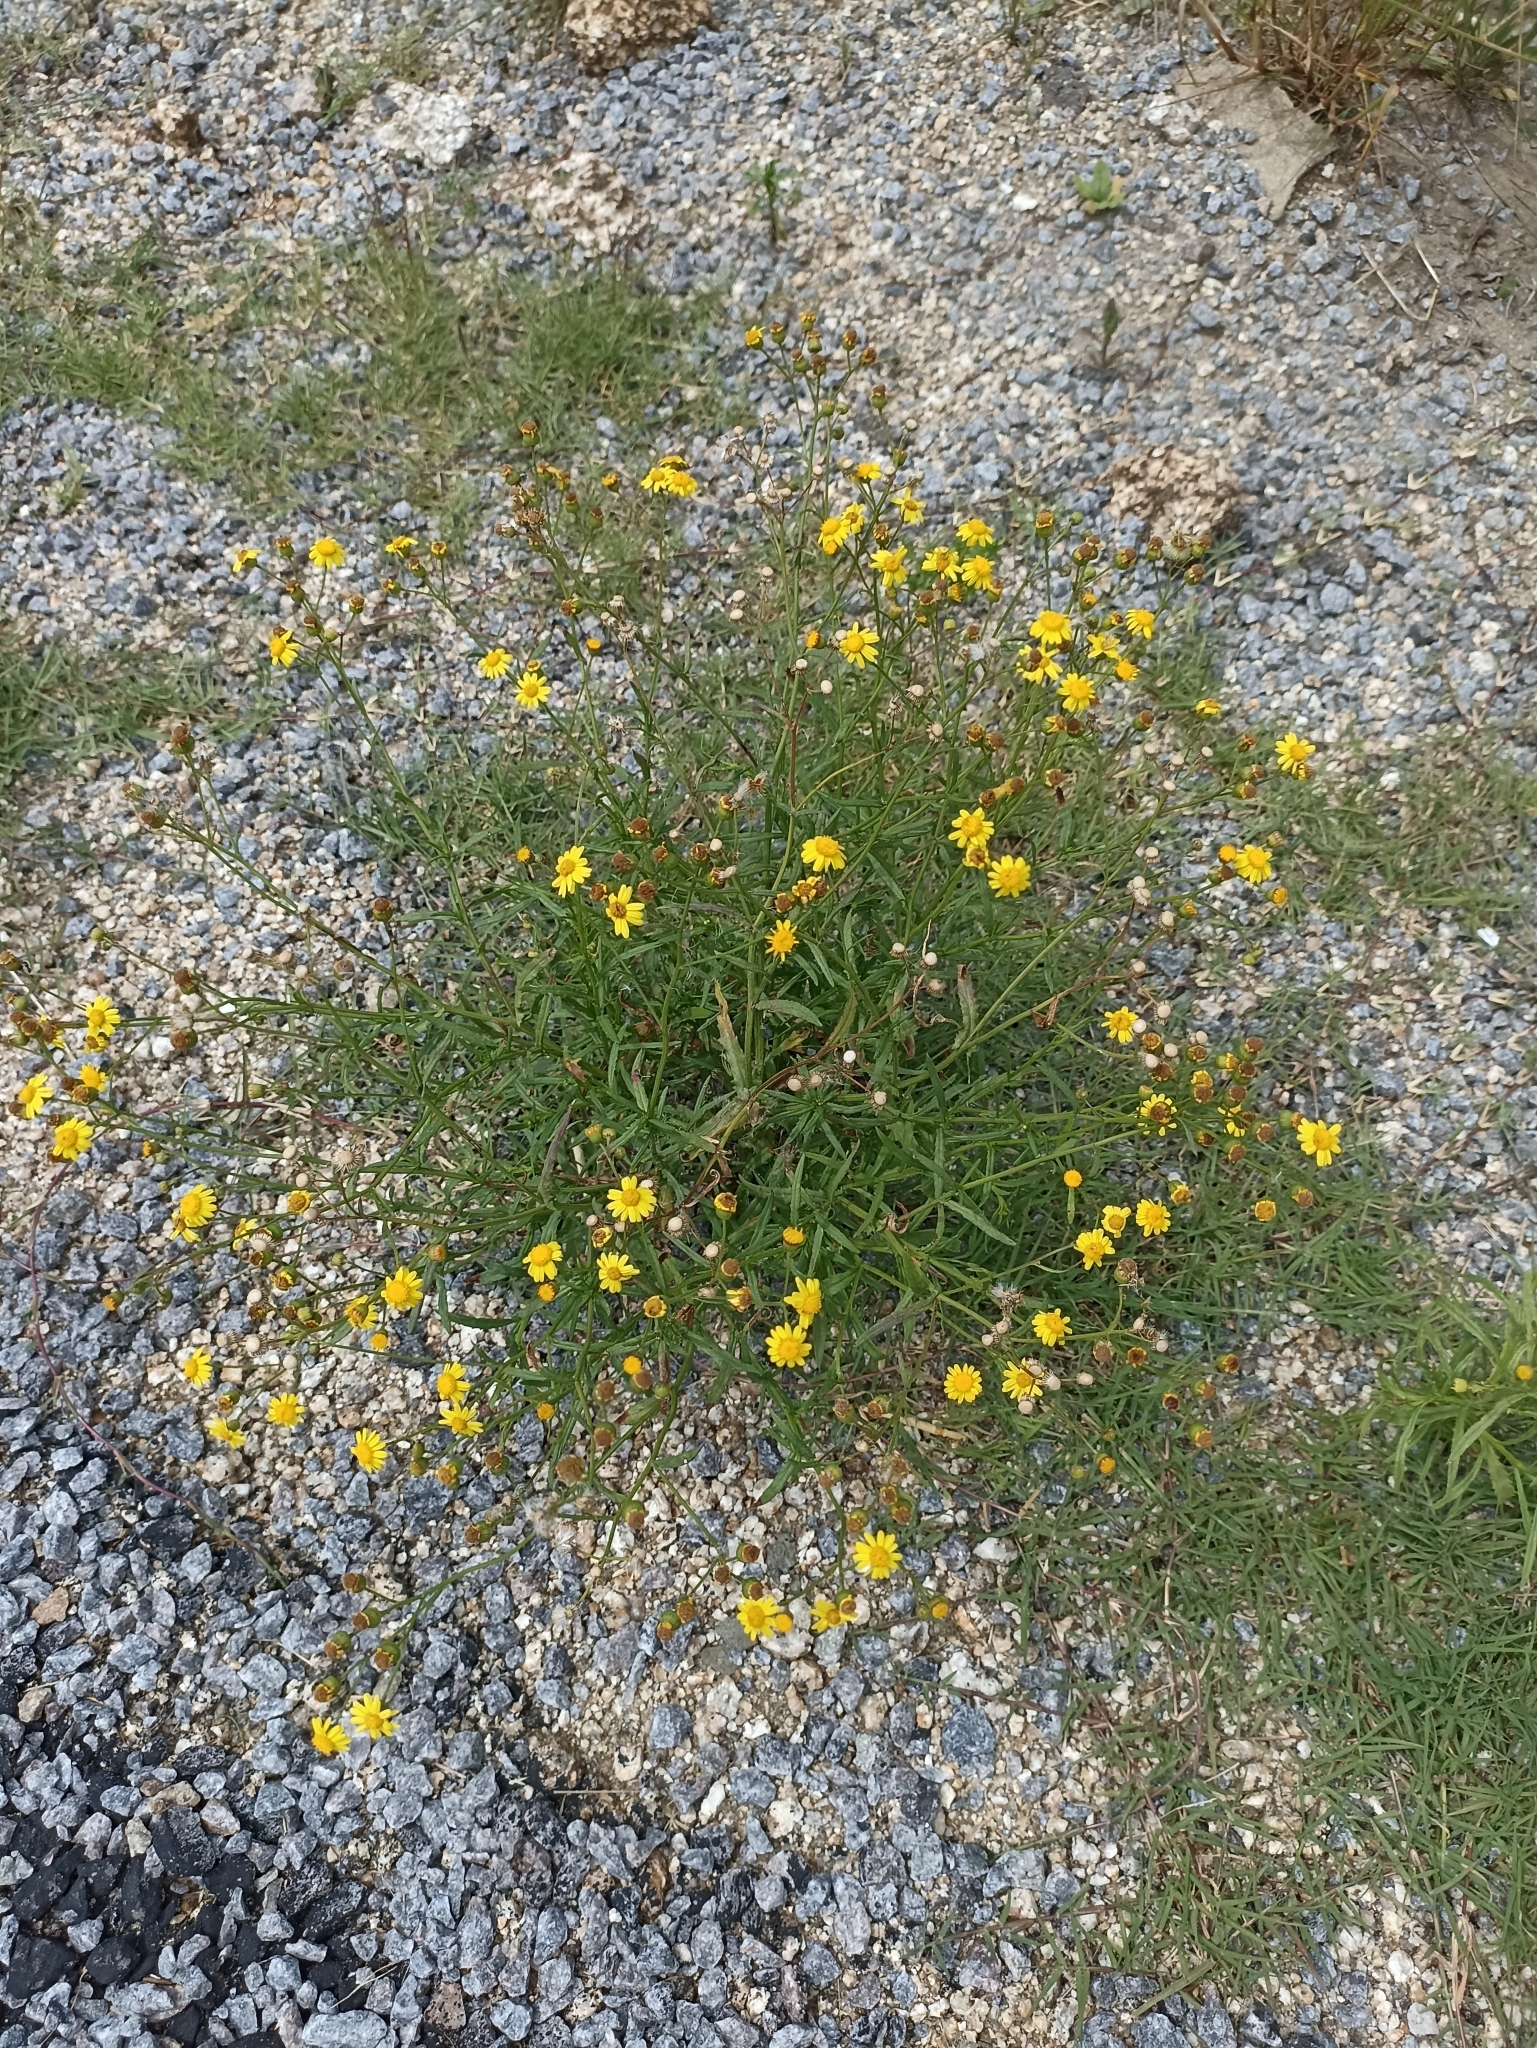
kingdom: Plantae
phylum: Tracheophyta
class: Magnoliopsida
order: Asterales
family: Asteraceae
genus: Senecio
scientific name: Senecio madagascariensis
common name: Madagascar ragwort
